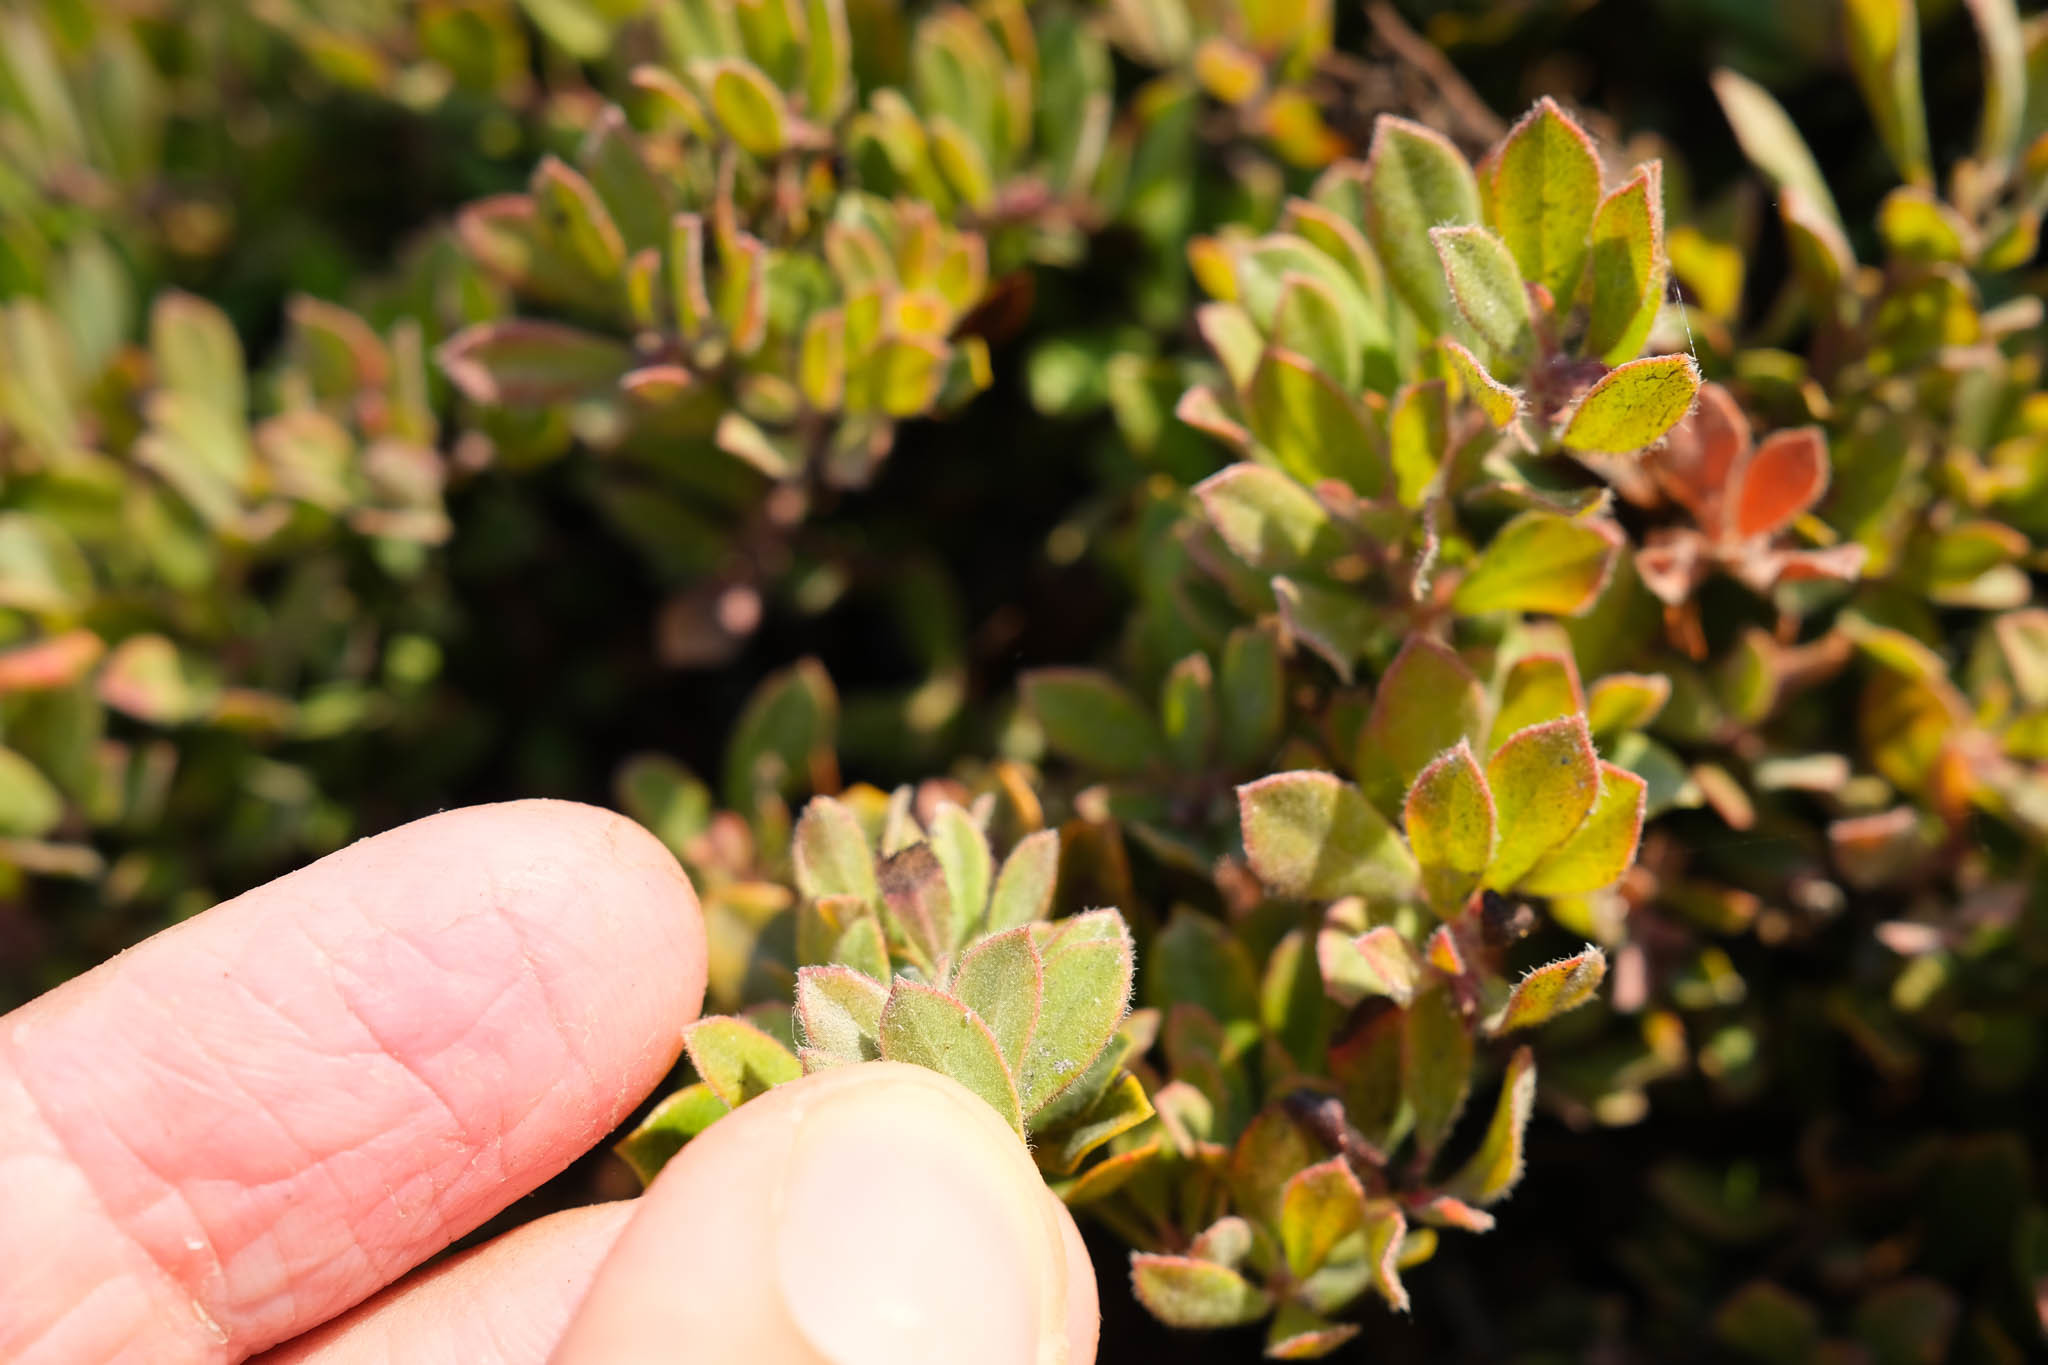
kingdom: Plantae
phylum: Tracheophyta
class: Magnoliopsida
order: Ericales
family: Ericaceae
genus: Arctostaphylos
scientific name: Arctostaphylos pumila
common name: Sandmat manzanita
